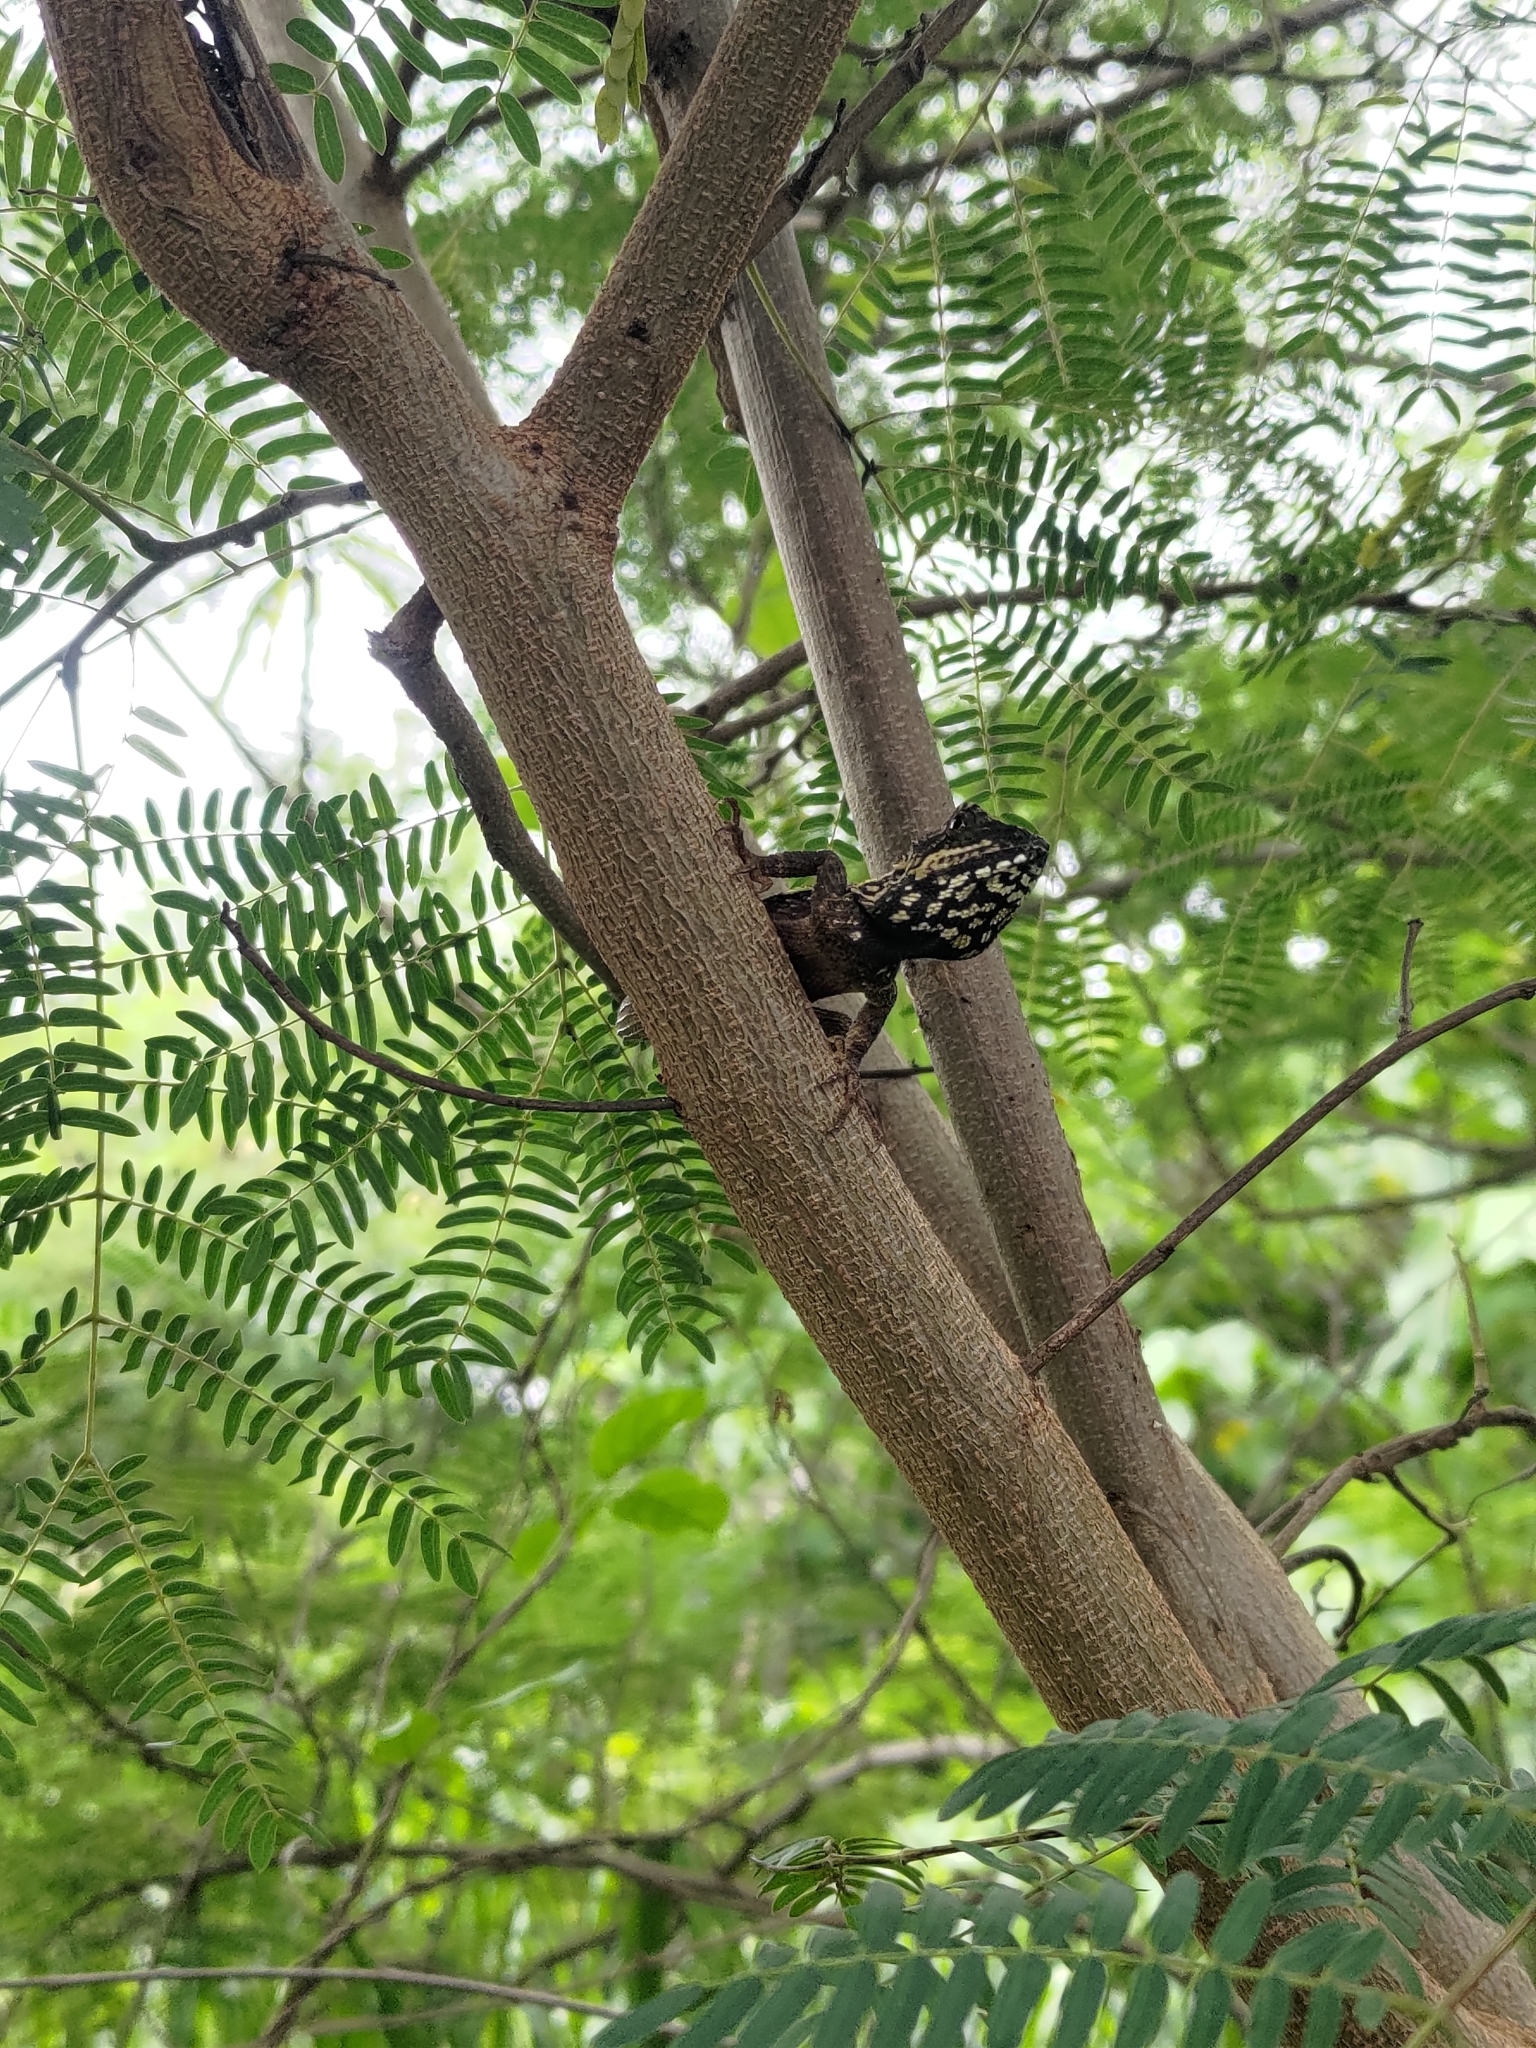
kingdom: Animalia
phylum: Chordata
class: Squamata
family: Agamidae
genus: Diploderma
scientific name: Diploderma swinhonis
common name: Taiwan japalure
